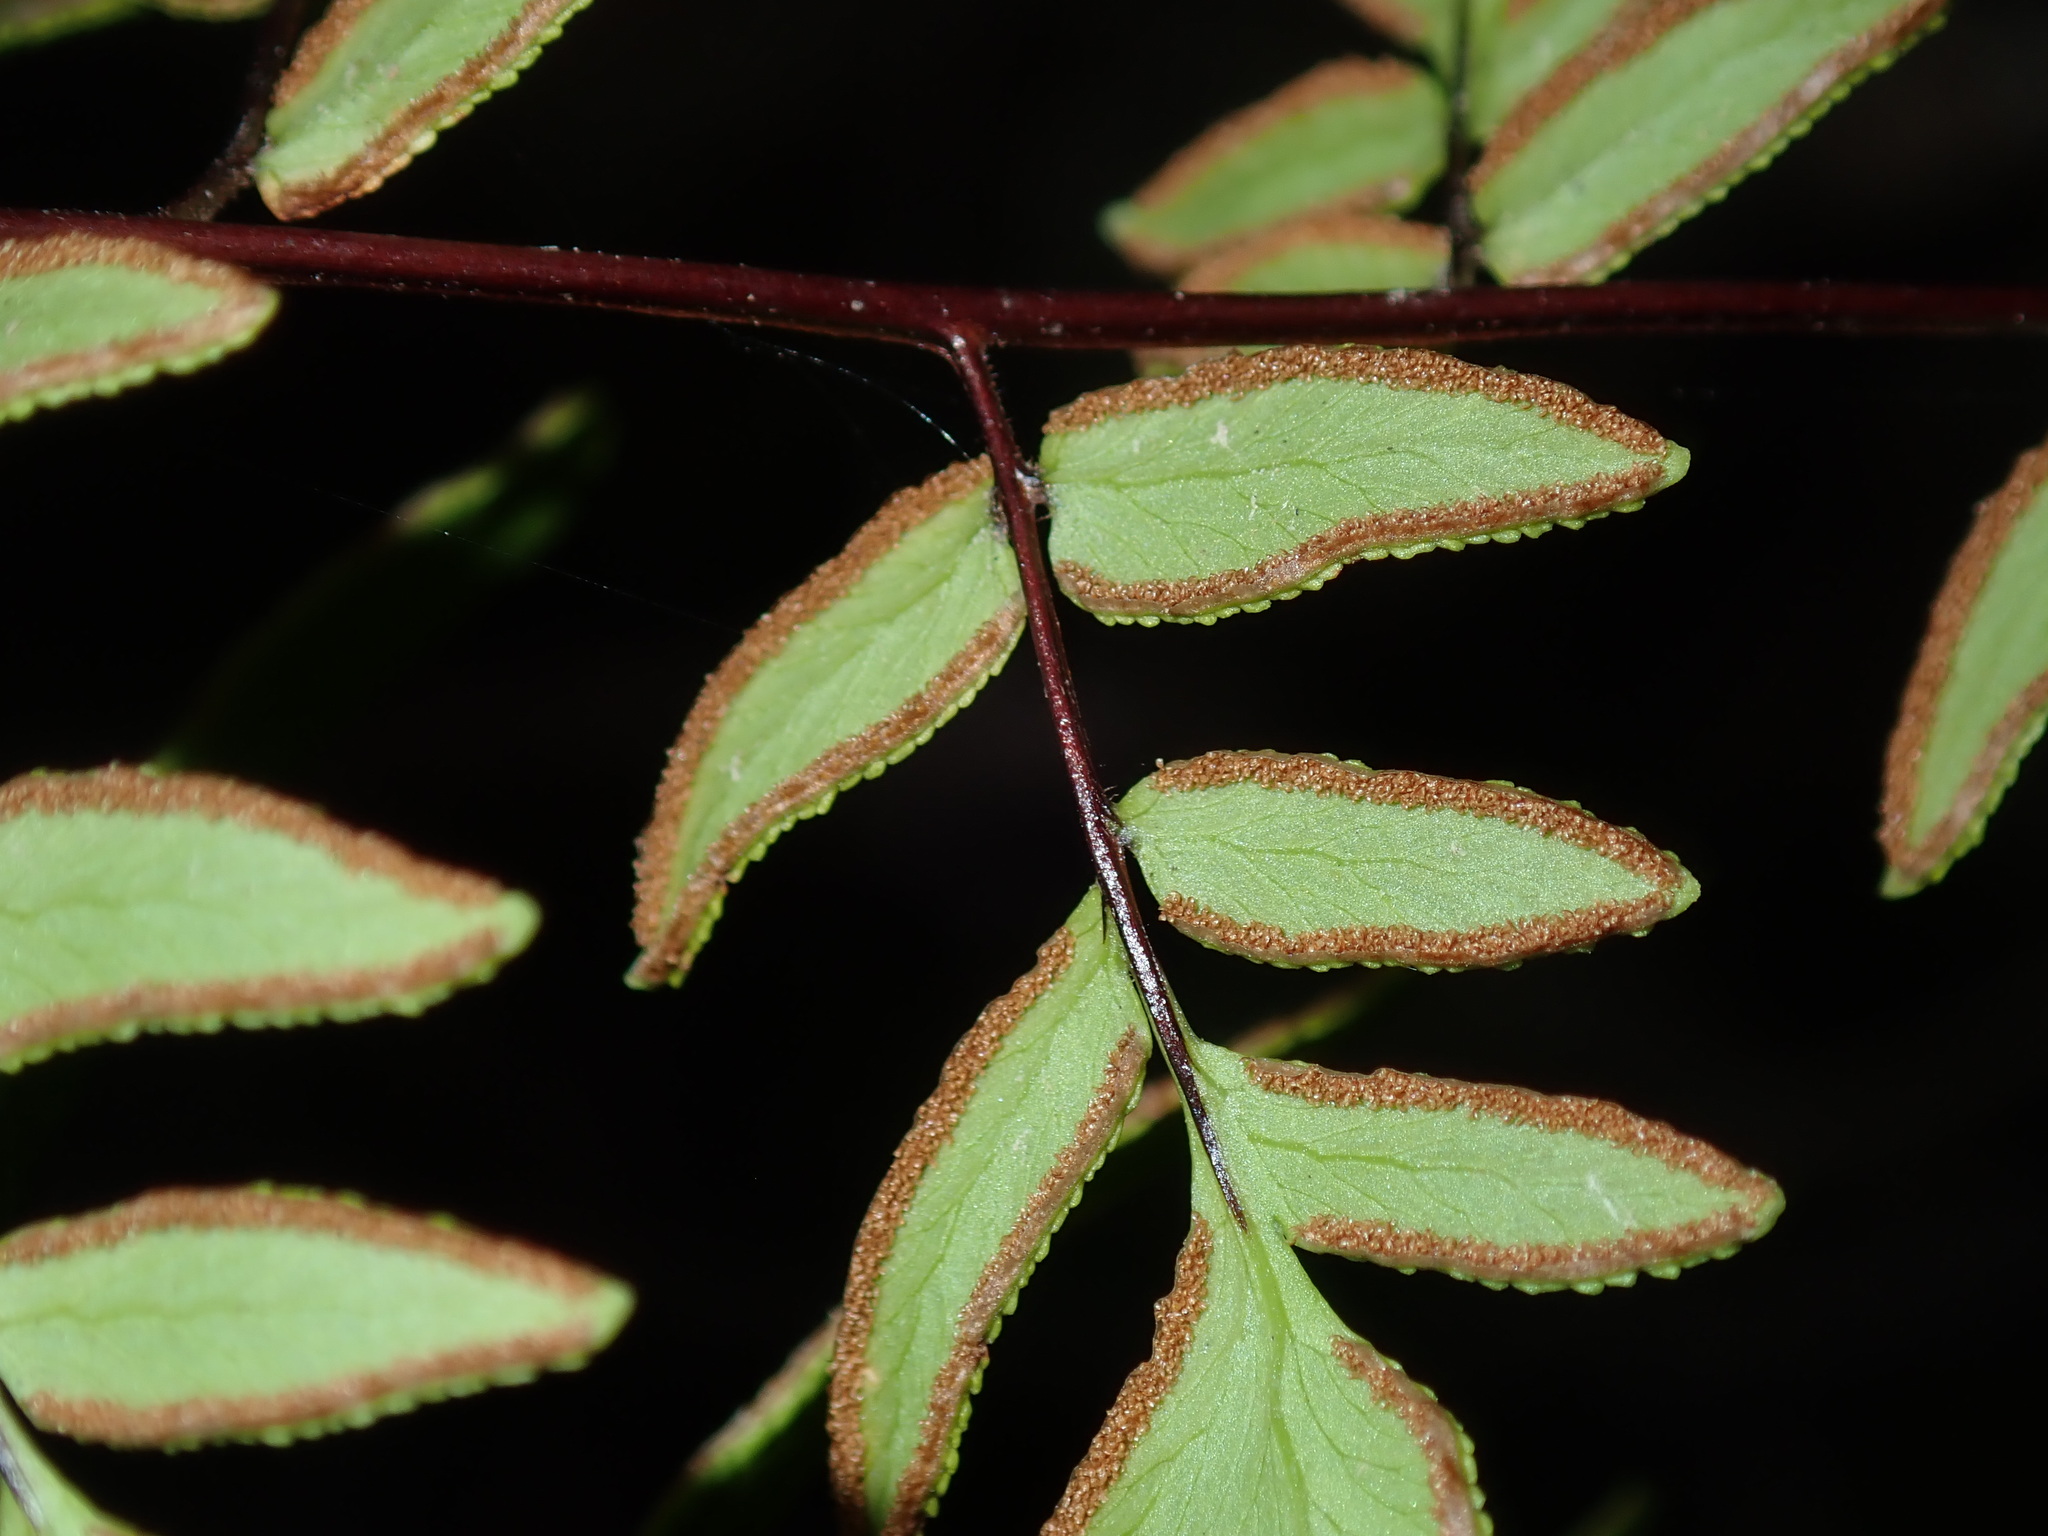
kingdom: Plantae
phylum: Tracheophyta
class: Polypodiopsida
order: Polypodiales
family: Pteridaceae
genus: Cheilanthes
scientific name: Cheilanthes viridis
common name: Green cliffbrake
